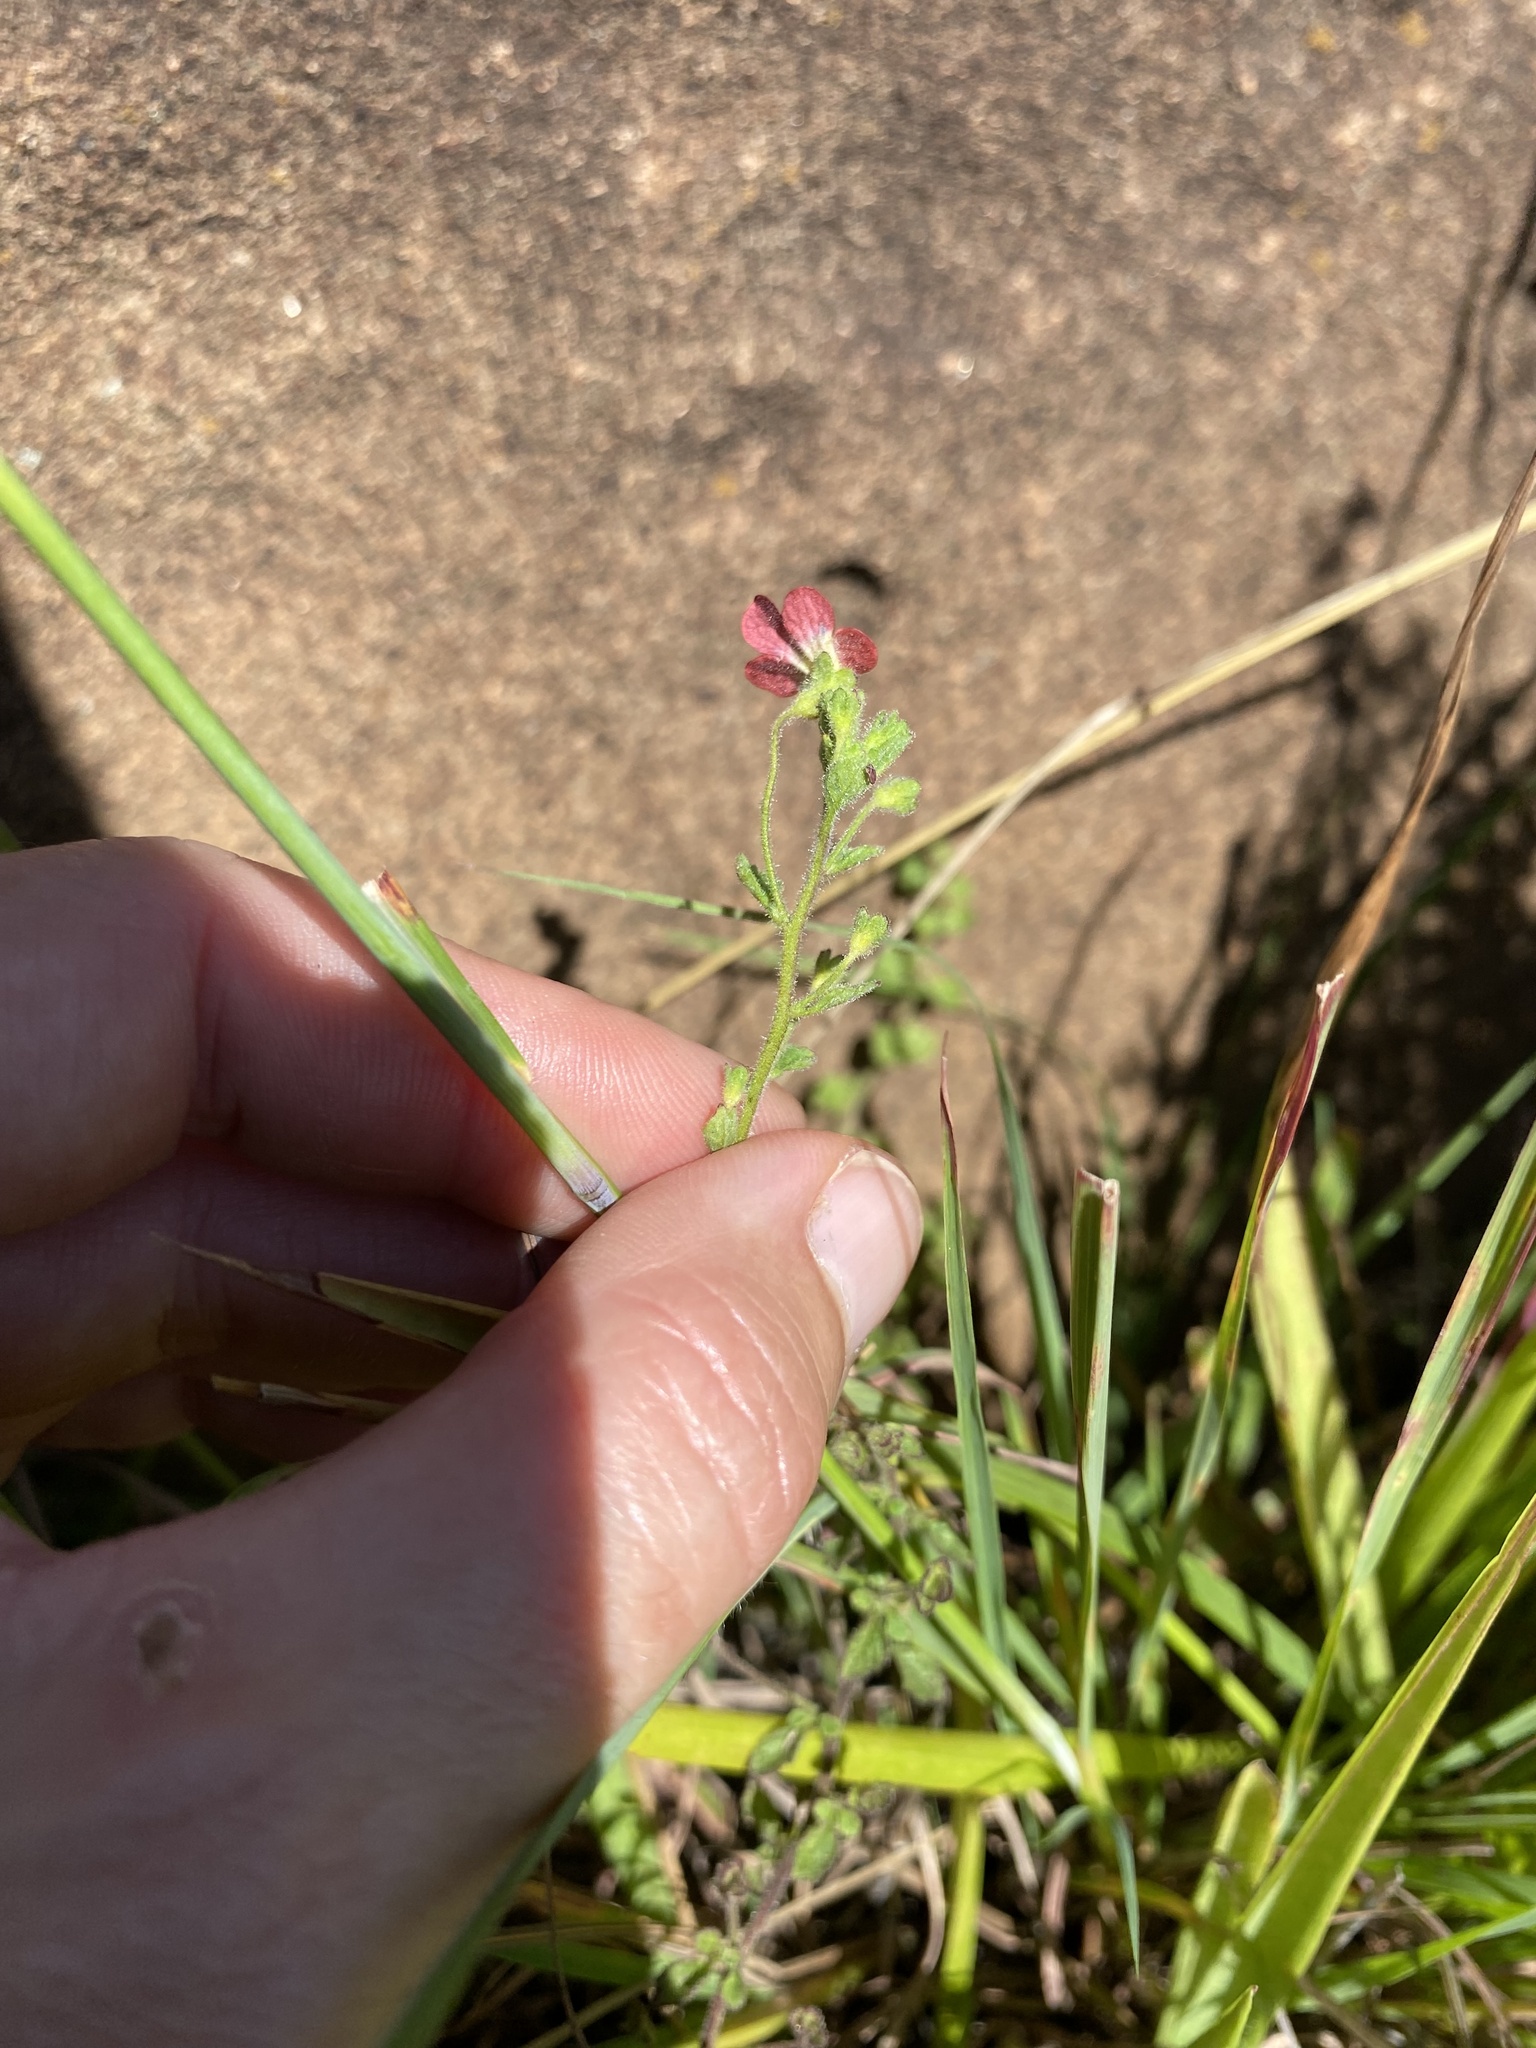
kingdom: Plantae
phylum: Tracheophyta
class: Magnoliopsida
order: Lamiales
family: Scrophulariaceae
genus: Jamesbrittenia
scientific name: Jamesbrittenia breviflora
